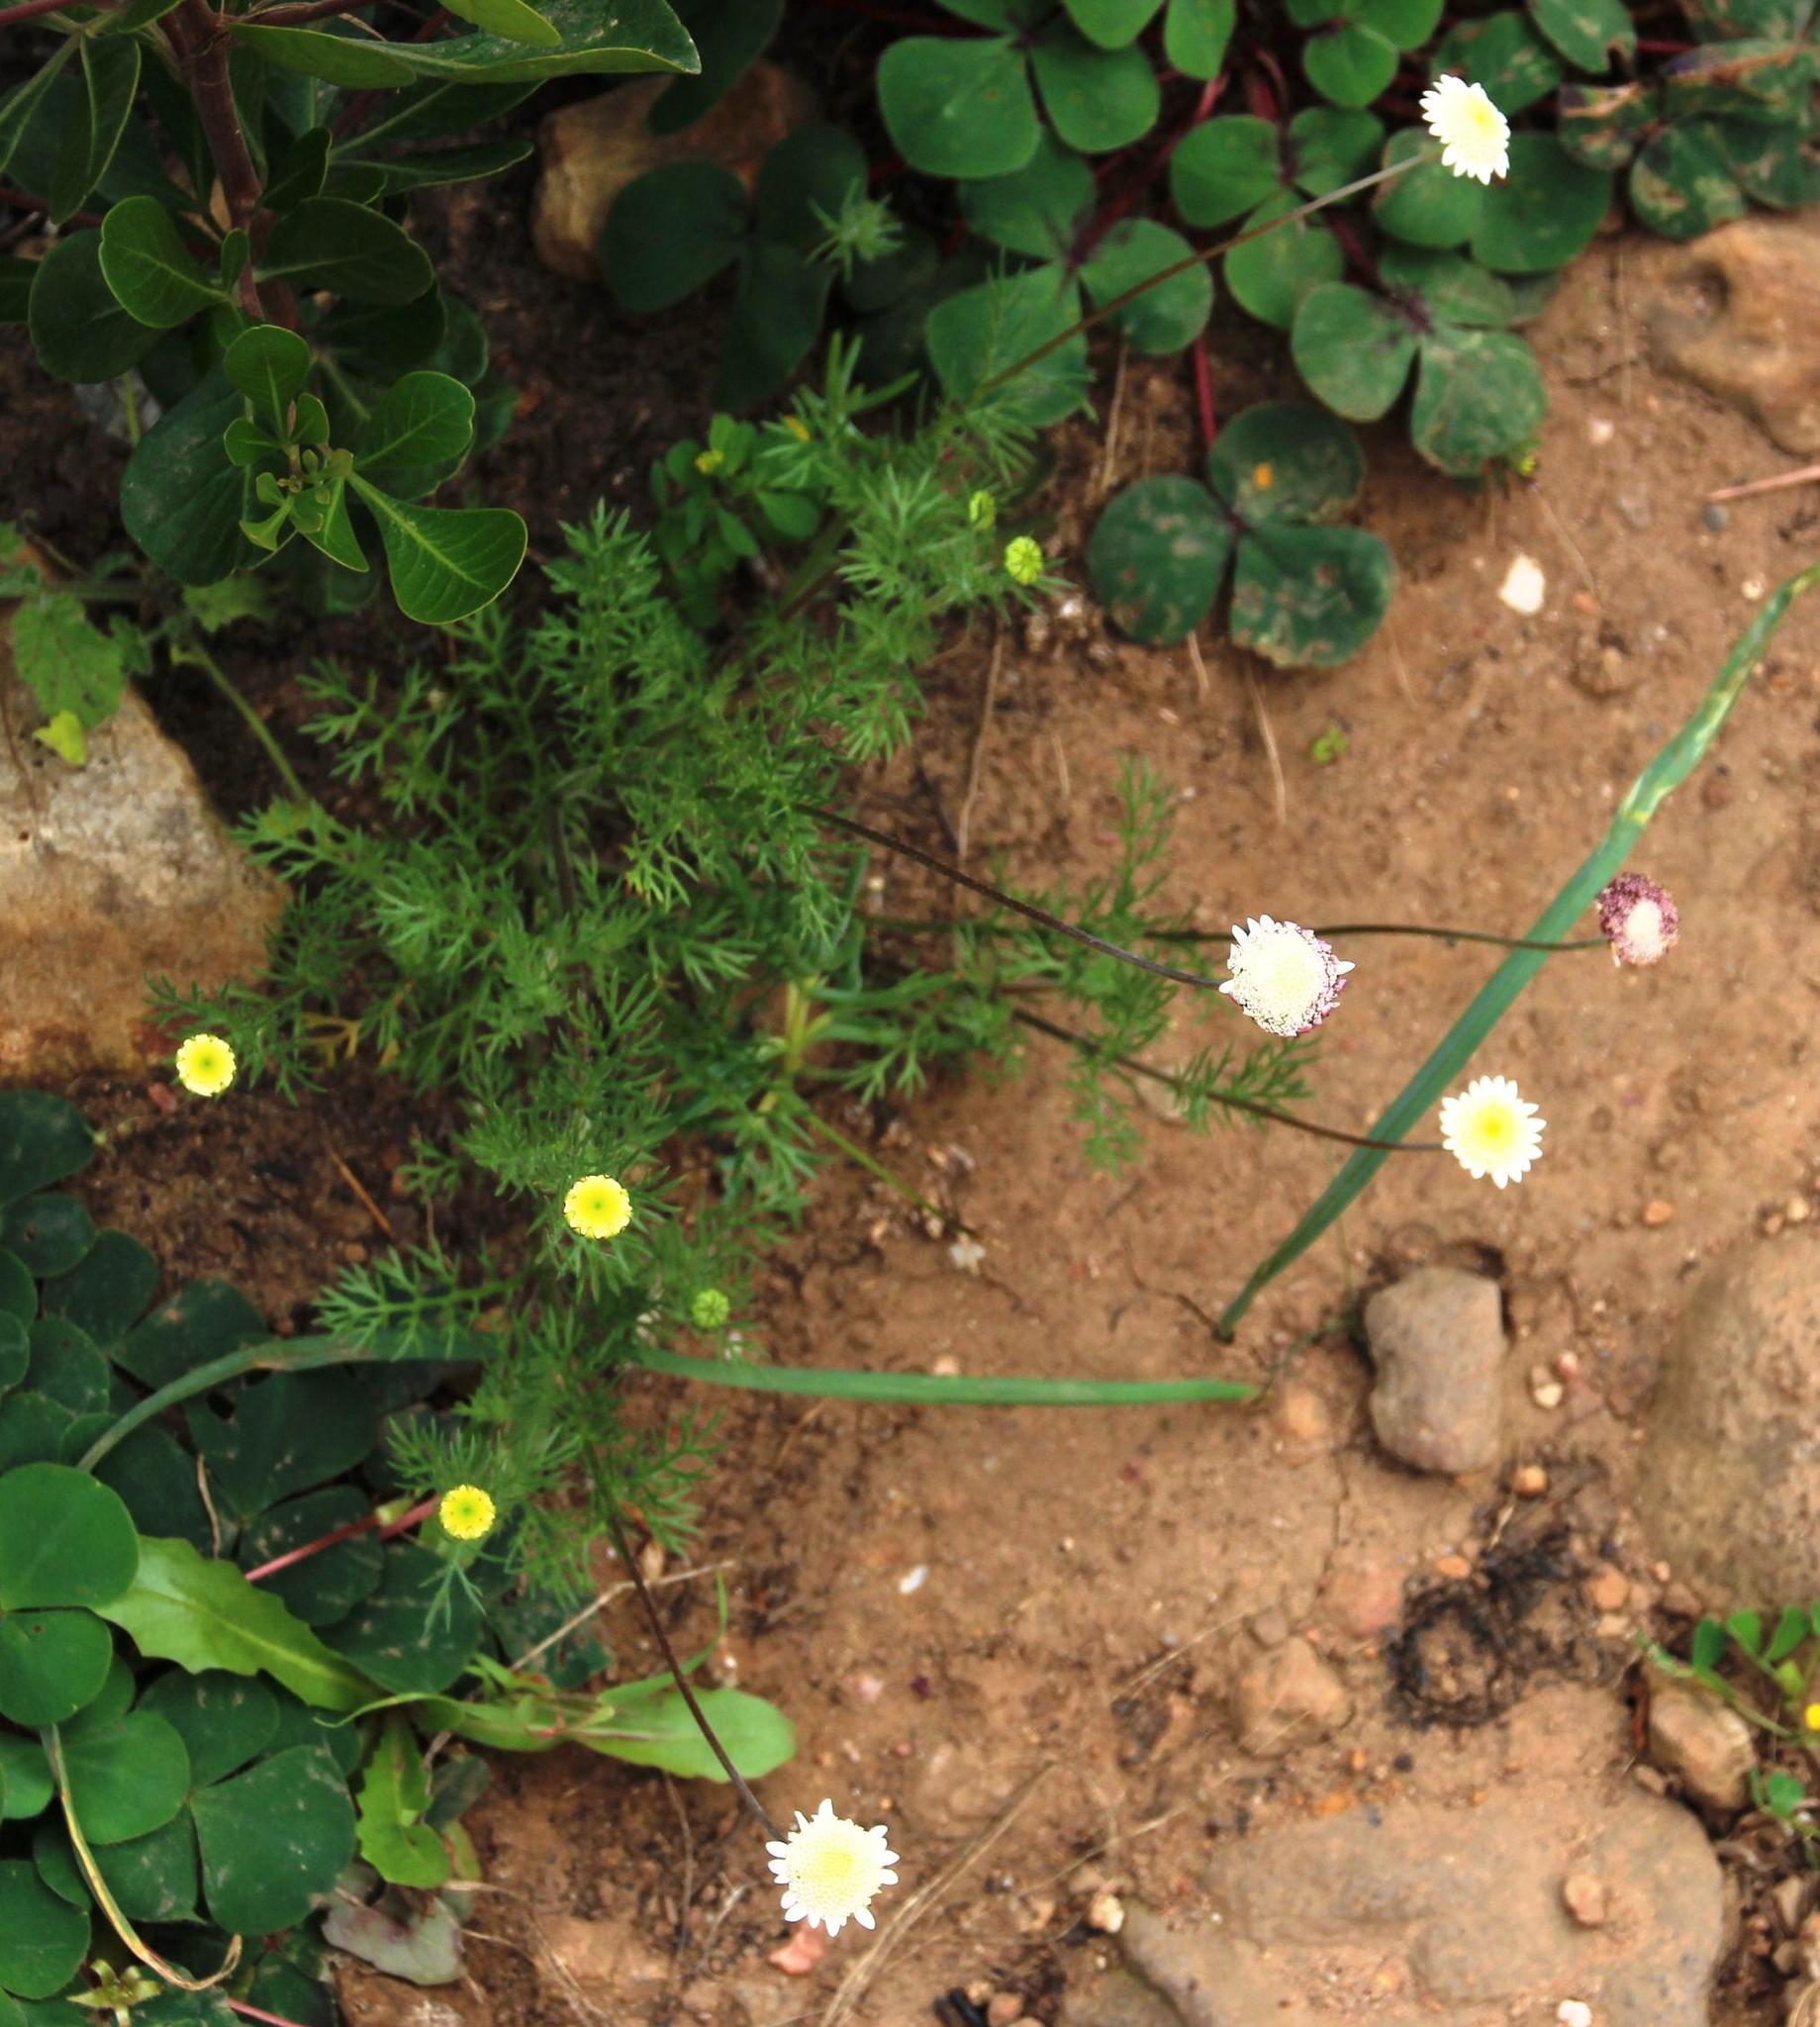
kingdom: Plantae
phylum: Tracheophyta
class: Magnoliopsida
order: Asterales
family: Asteraceae
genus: Cotula
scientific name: Cotula turbinata
